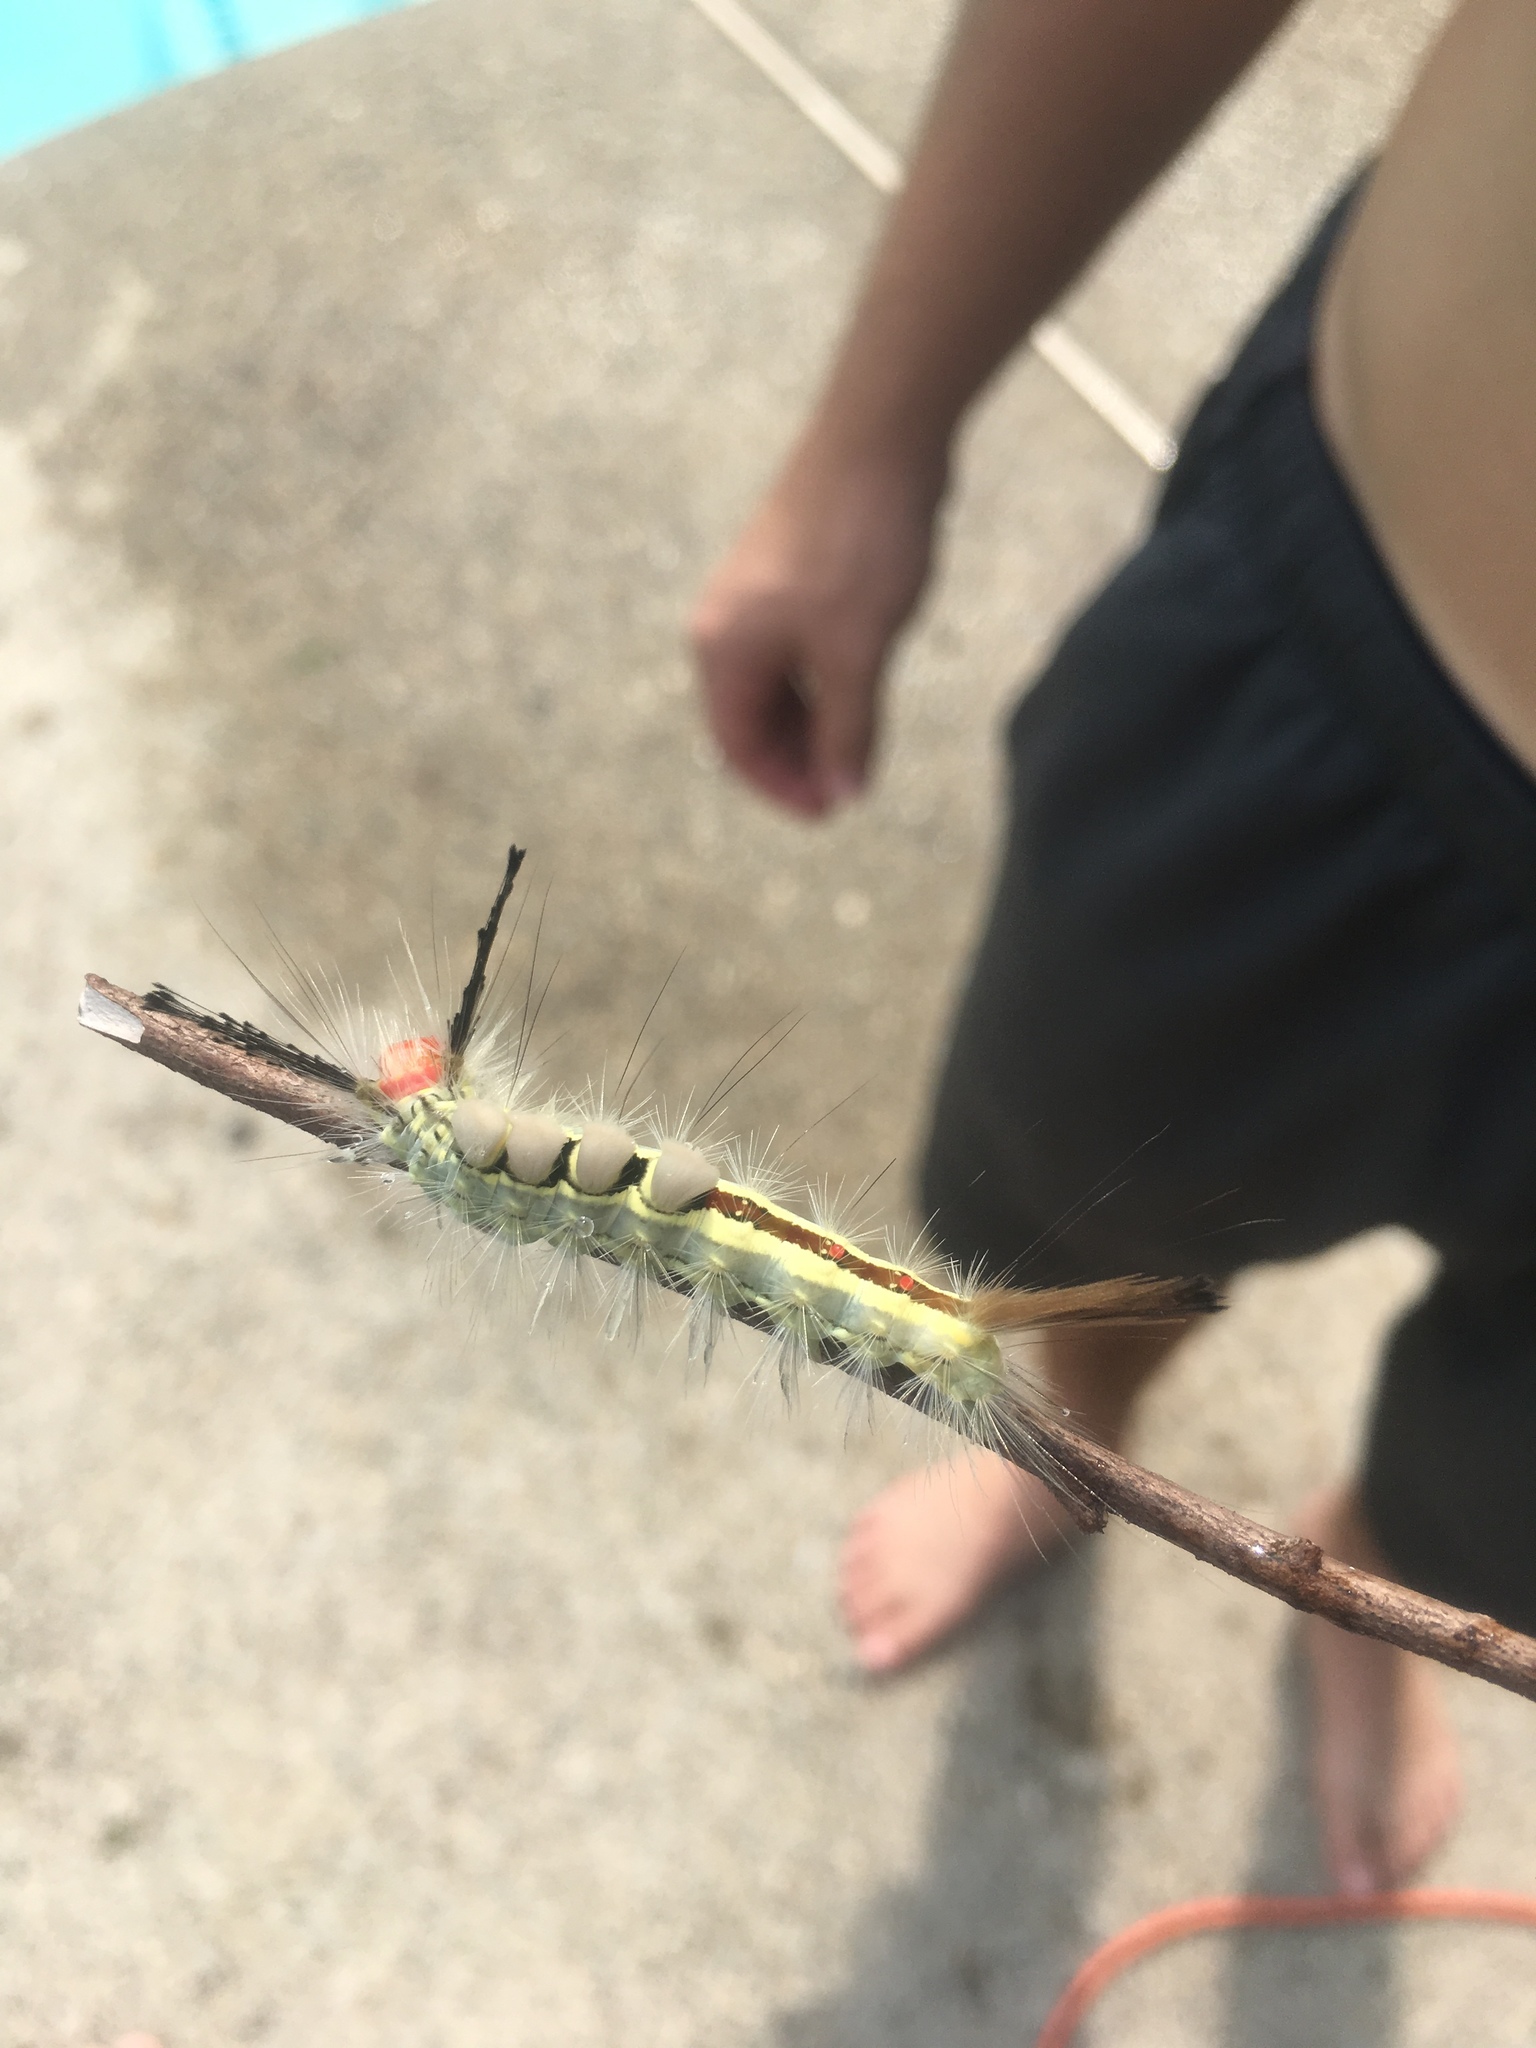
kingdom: Animalia
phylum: Arthropoda
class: Insecta
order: Lepidoptera
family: Erebidae
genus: Orgyia
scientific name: Orgyia leucostigma
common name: White-marked tussock moth
